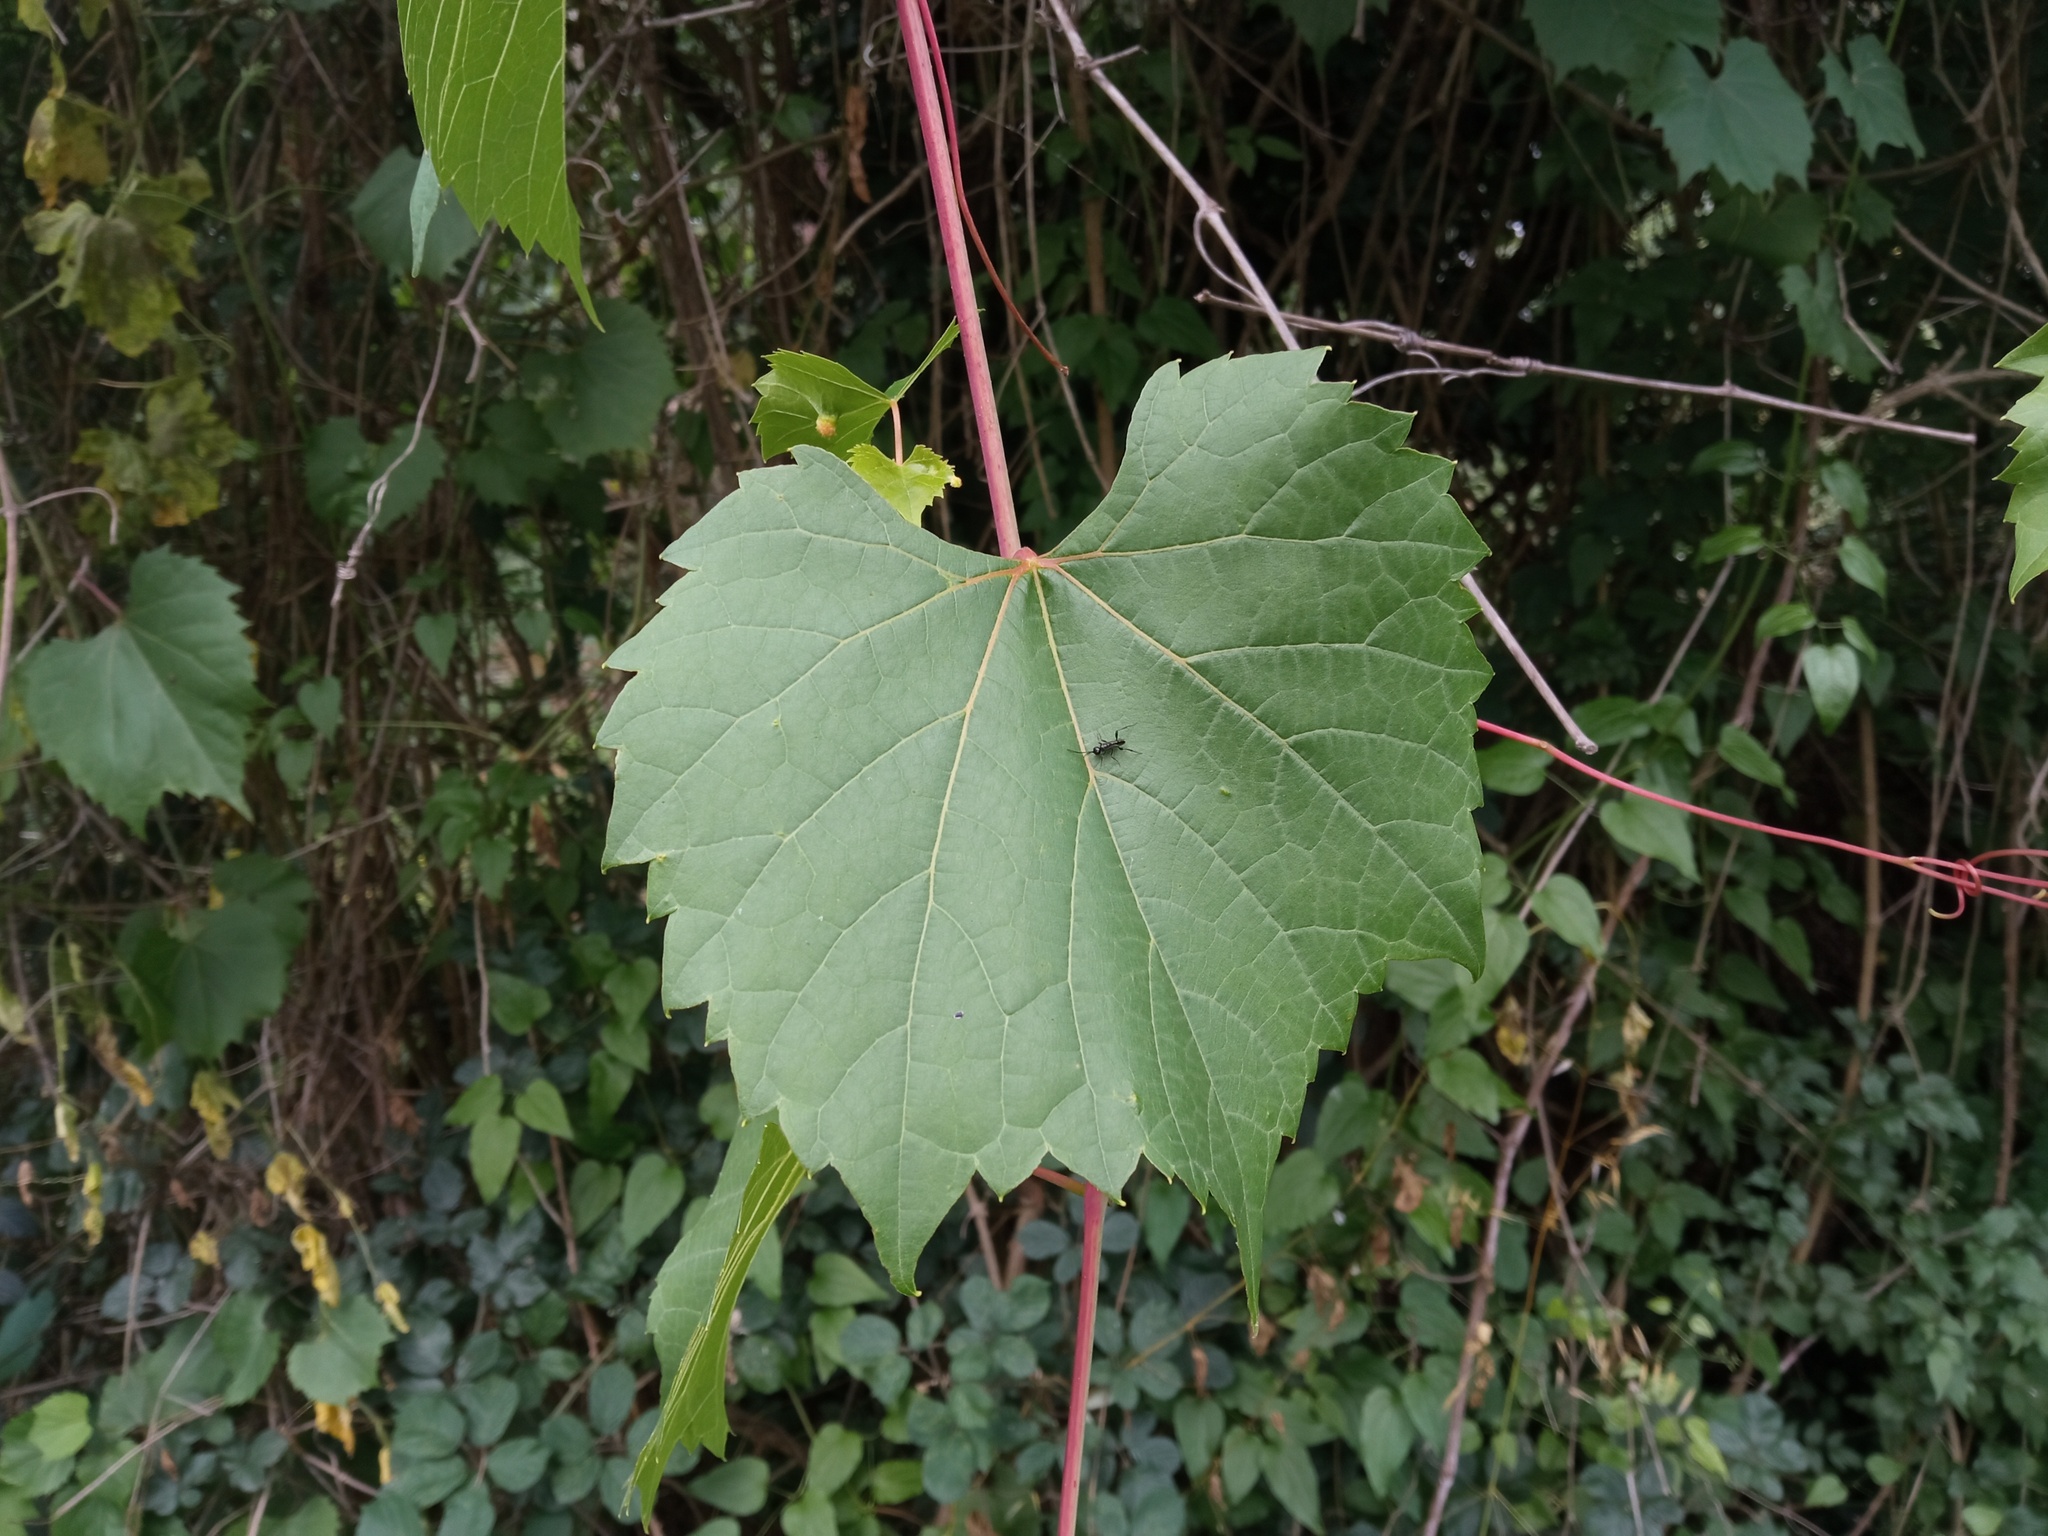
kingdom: Plantae
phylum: Tracheophyta
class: Magnoliopsida
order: Vitales
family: Vitaceae
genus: Vitis
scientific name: Vitis instabilis
